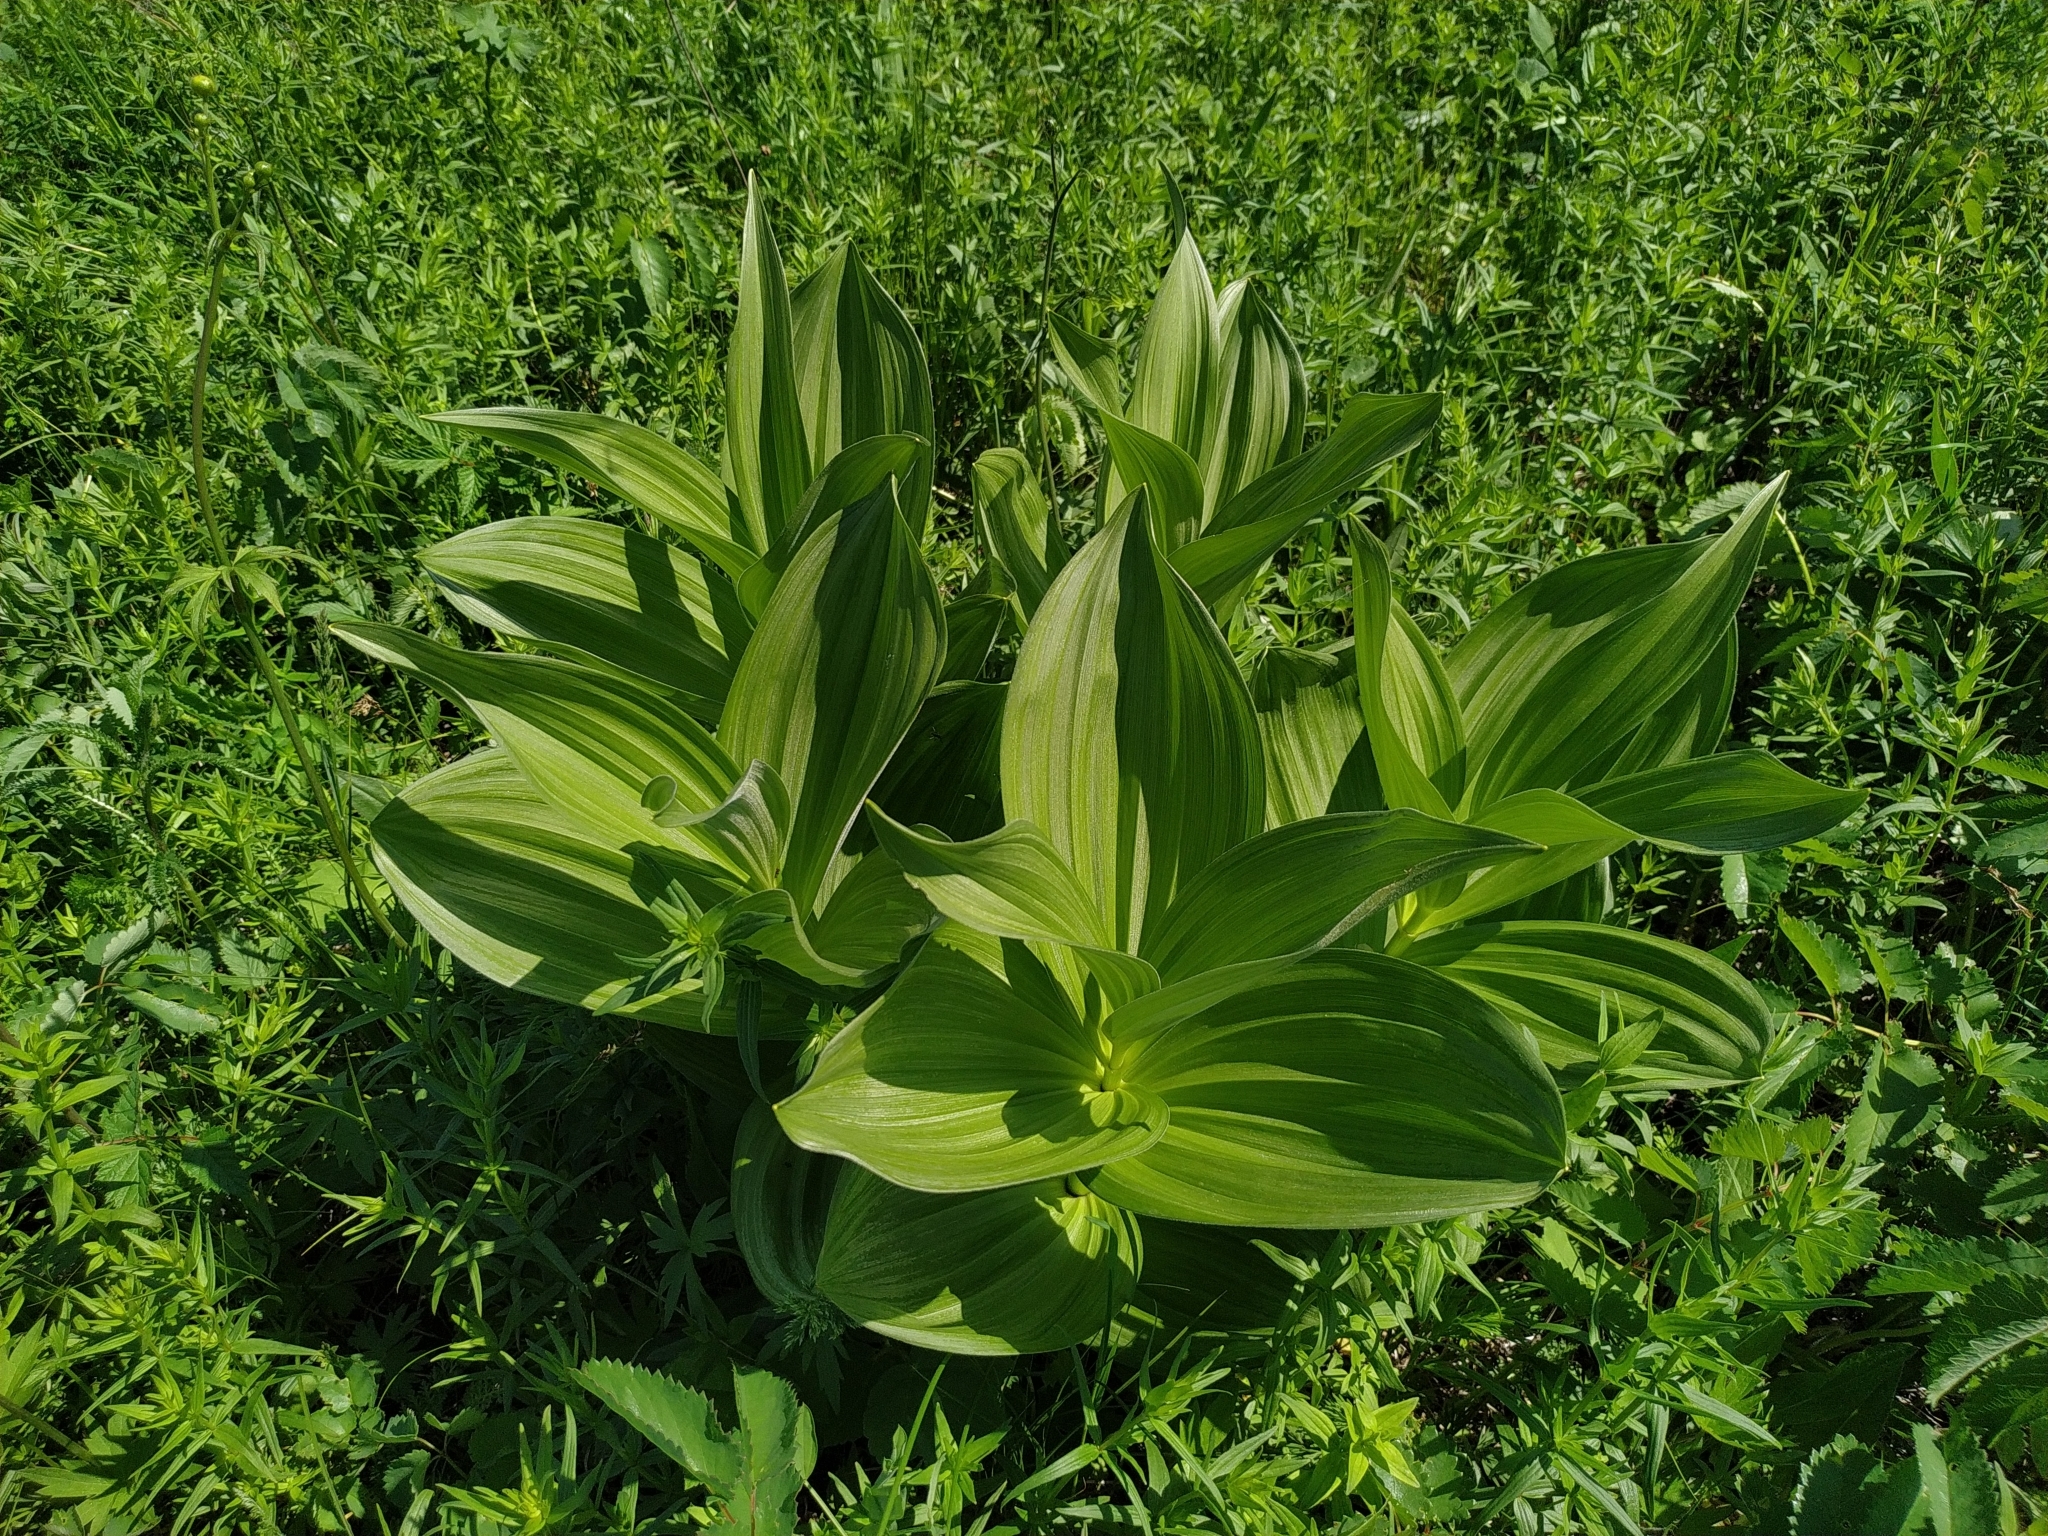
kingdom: Plantae
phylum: Tracheophyta
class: Liliopsida
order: Liliales
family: Melanthiaceae
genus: Veratrum
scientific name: Veratrum lobelianum
